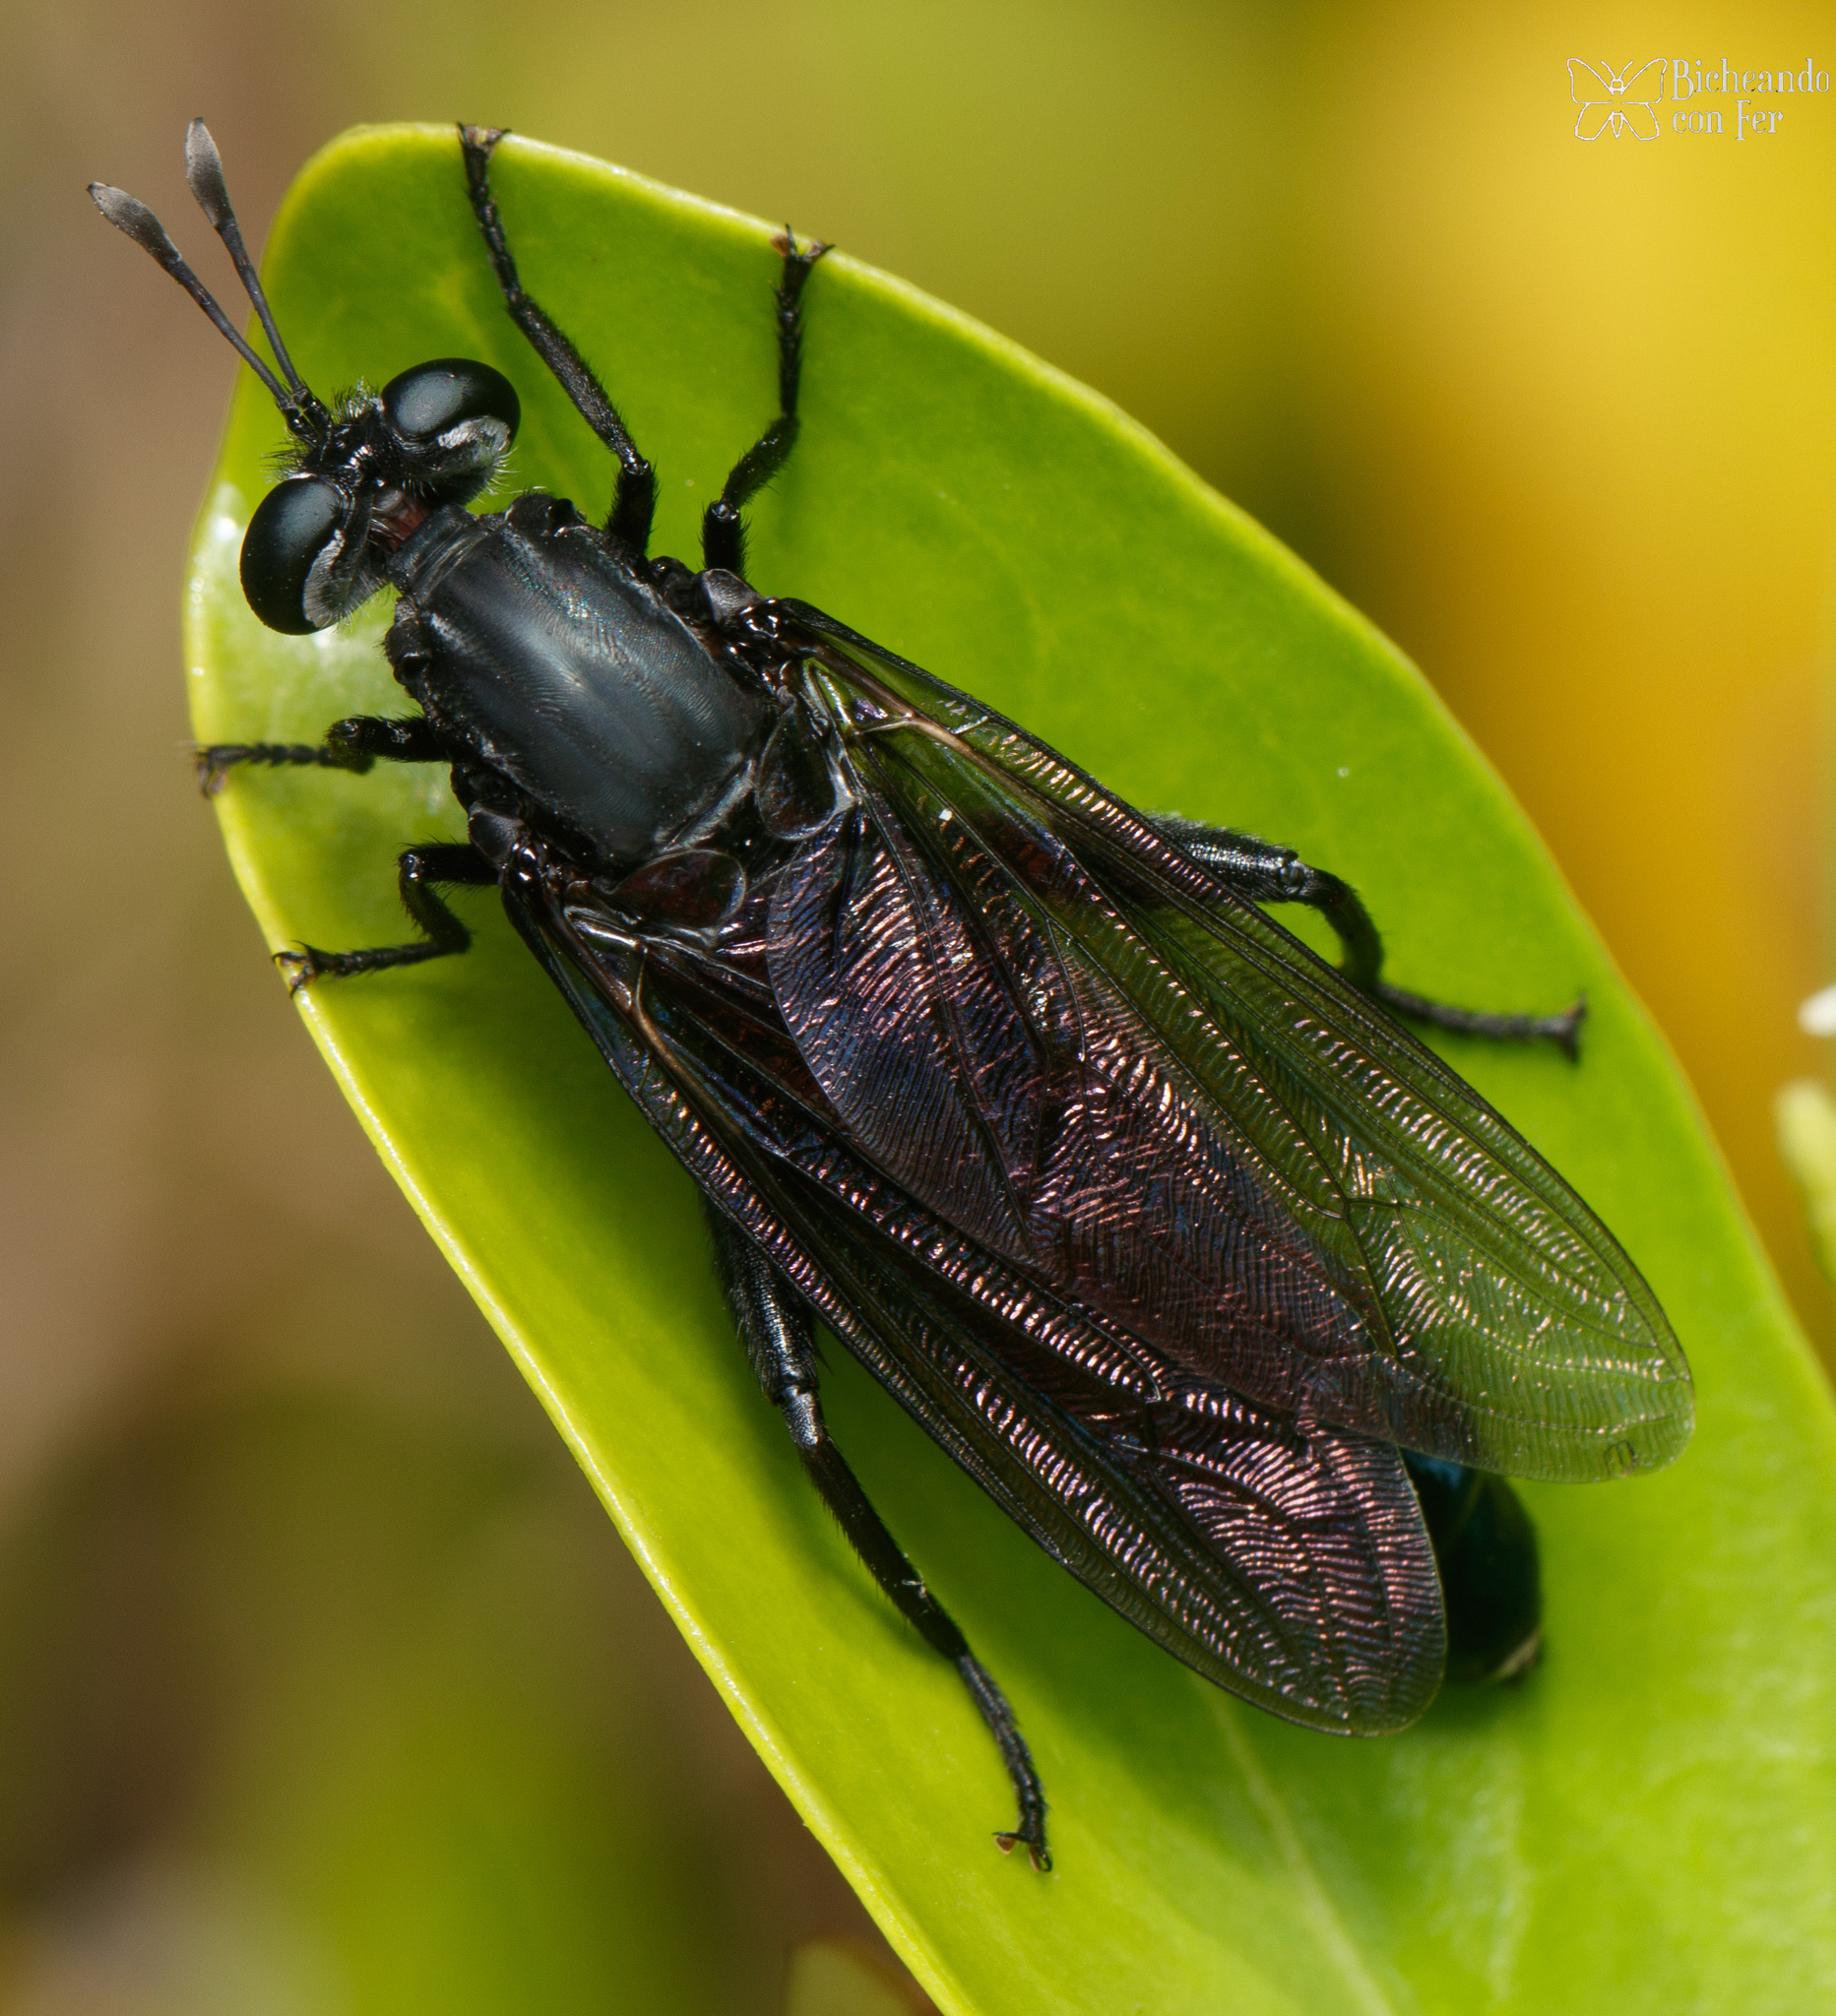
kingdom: Animalia
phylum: Arthropoda
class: Insecta
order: Diptera
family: Mydidae
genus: Stratiomydas
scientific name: Stratiomydas
